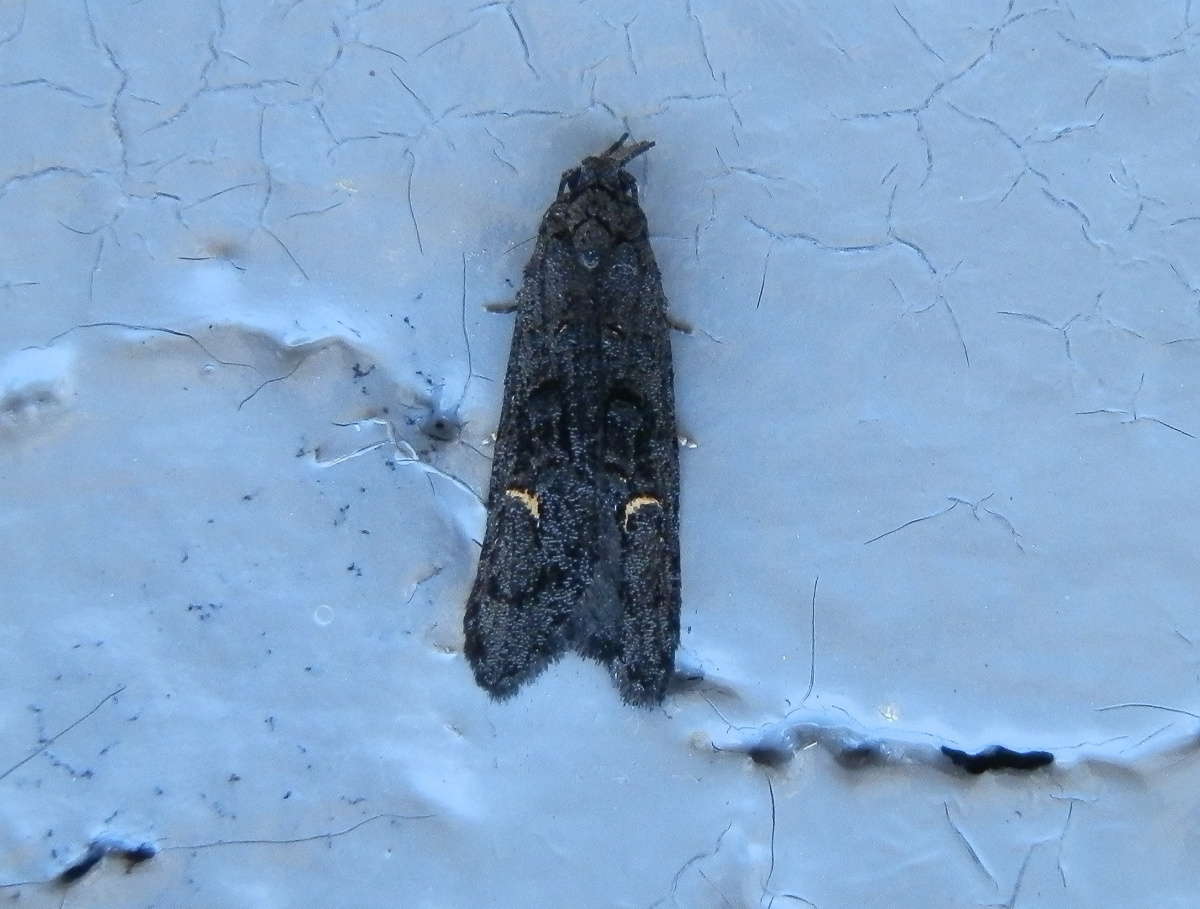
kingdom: Animalia
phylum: Arthropoda
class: Insecta
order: Lepidoptera
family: Carposinidae
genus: Bondia
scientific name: Bondia nigella
